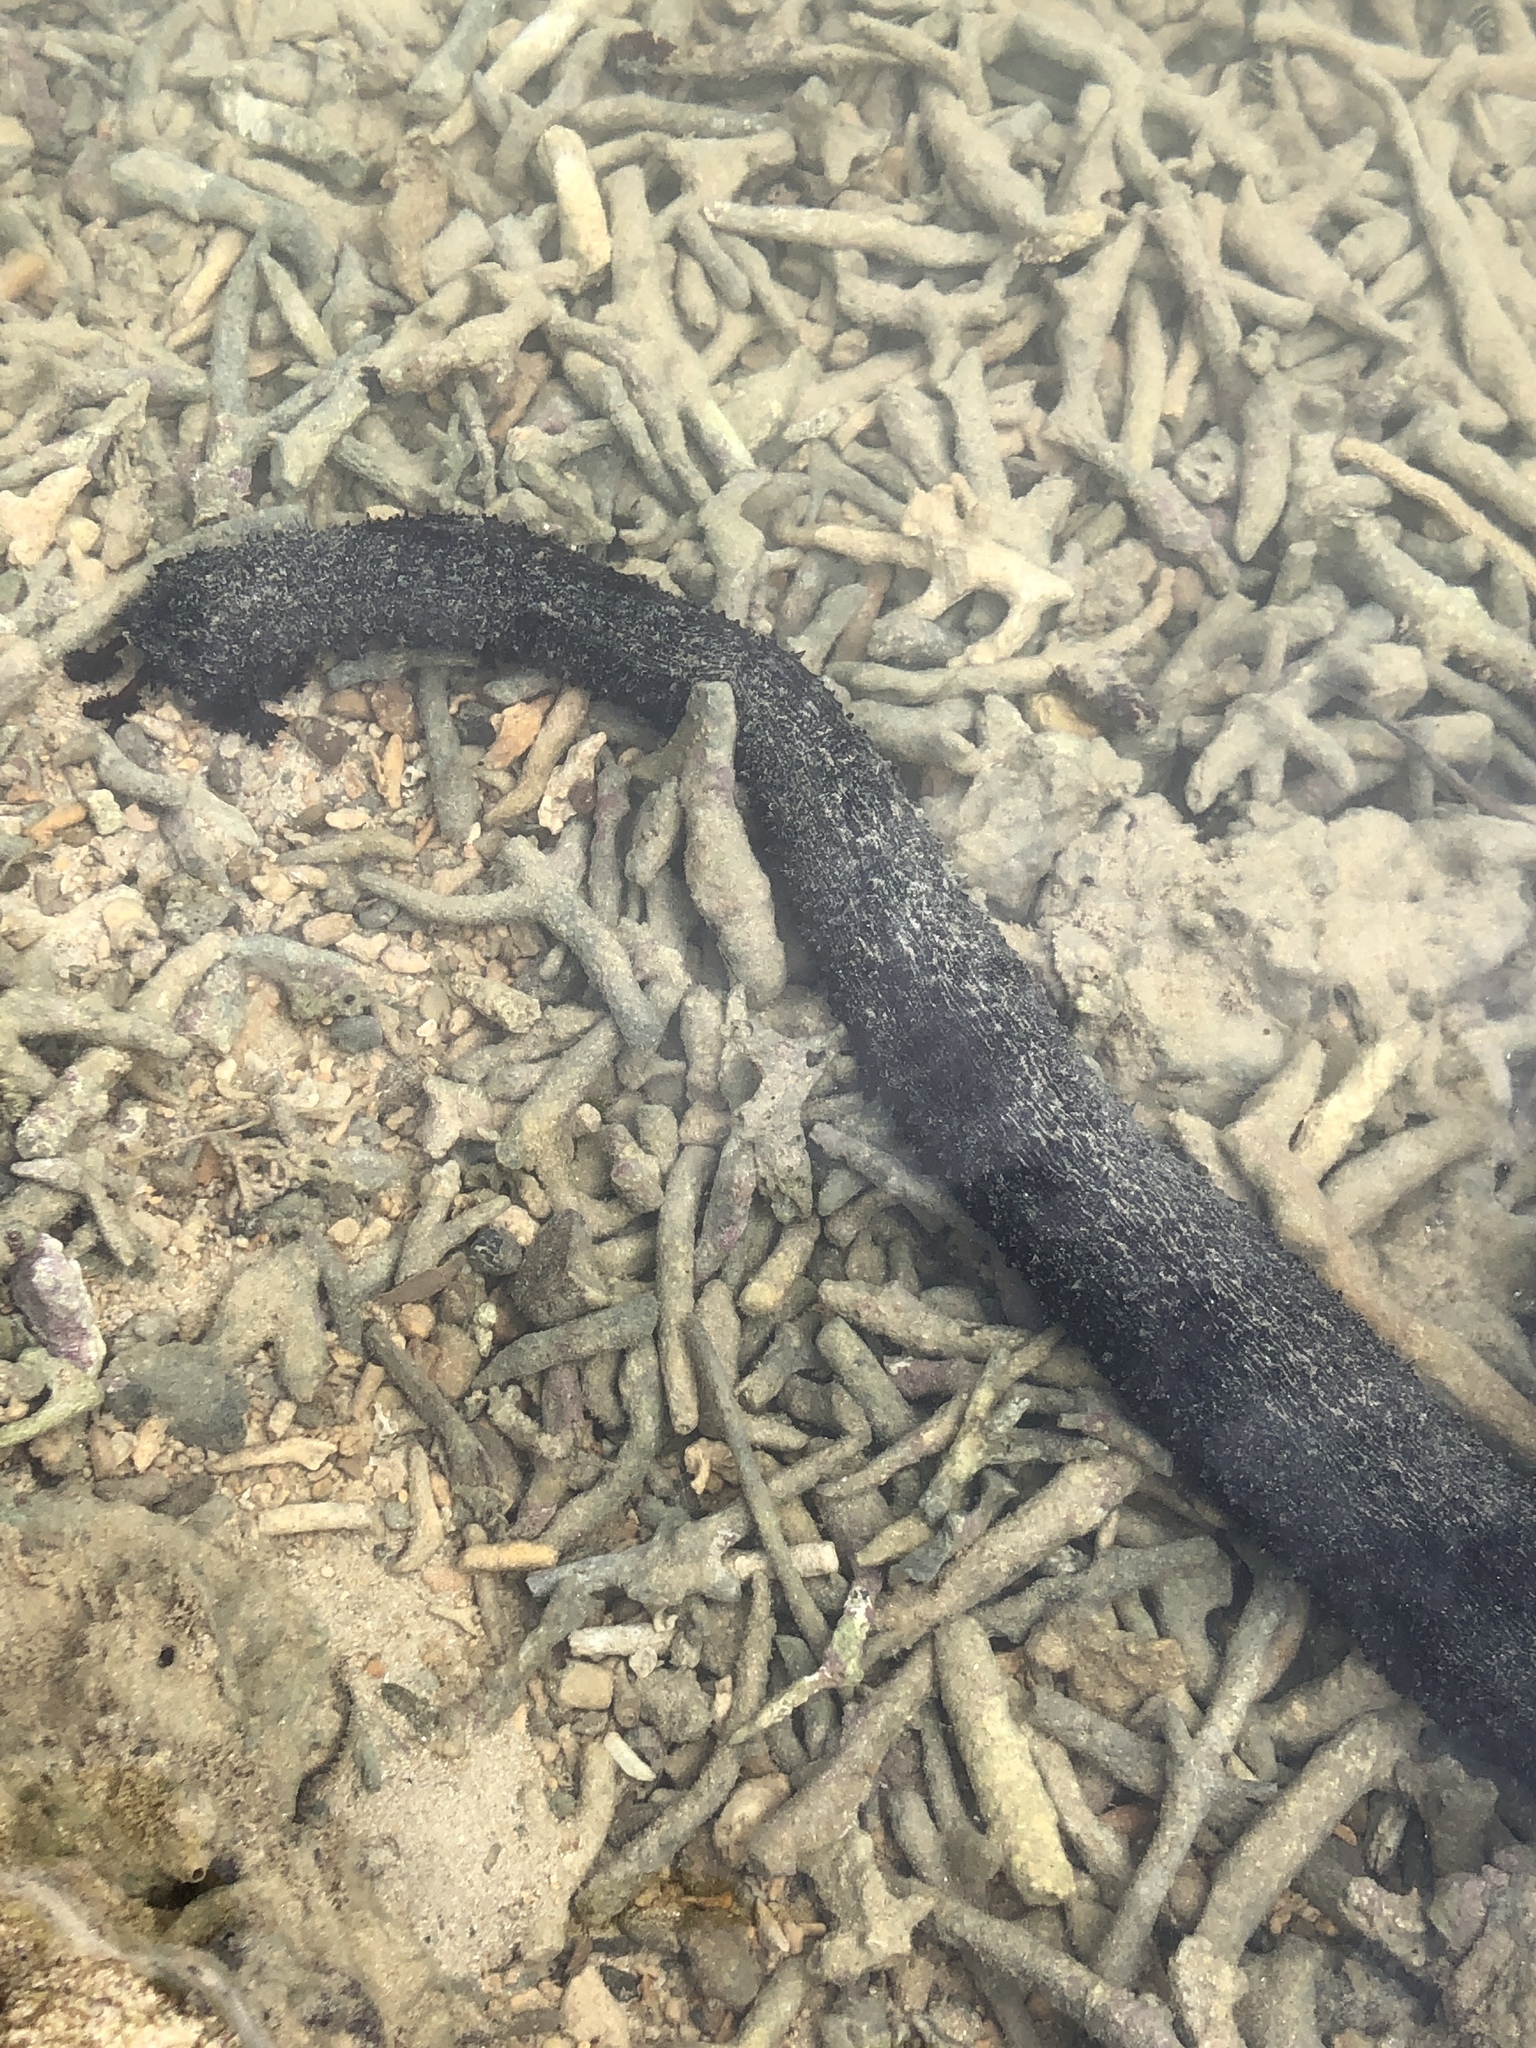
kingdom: Animalia
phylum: Echinodermata
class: Holothuroidea
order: Holothuriida
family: Holothuriidae
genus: Holothuria
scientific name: Holothuria leucospilota
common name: White thread fish
